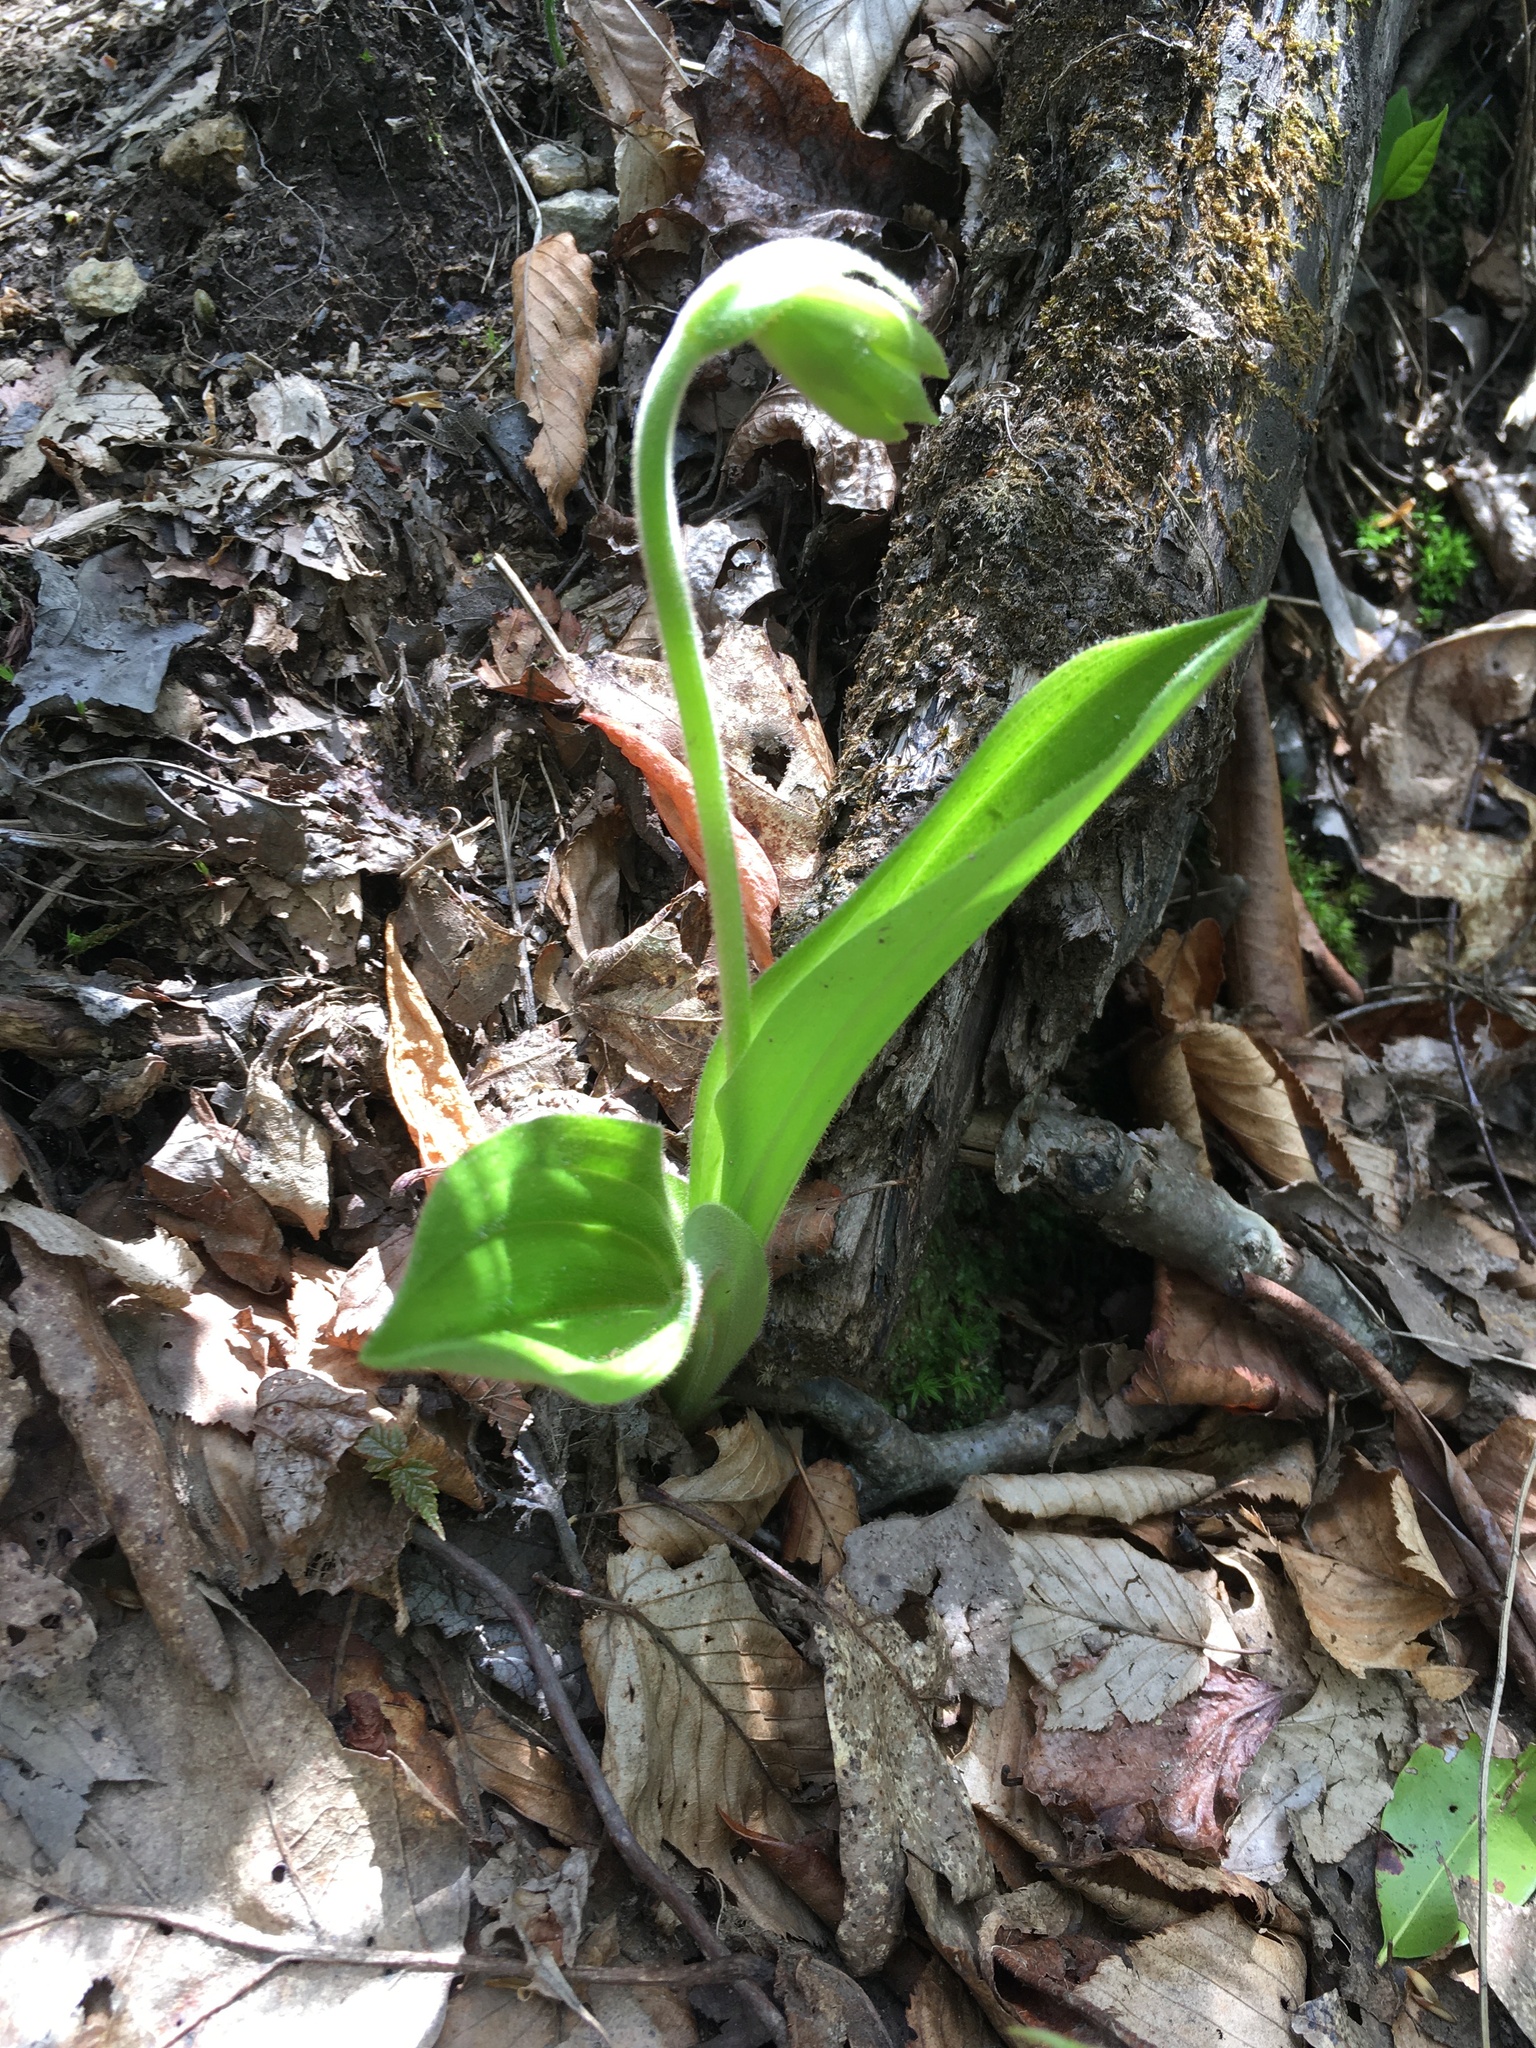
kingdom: Plantae
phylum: Tracheophyta
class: Liliopsida
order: Asparagales
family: Orchidaceae
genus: Cypripedium
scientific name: Cypripedium acaule
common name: Pink lady's-slipper
